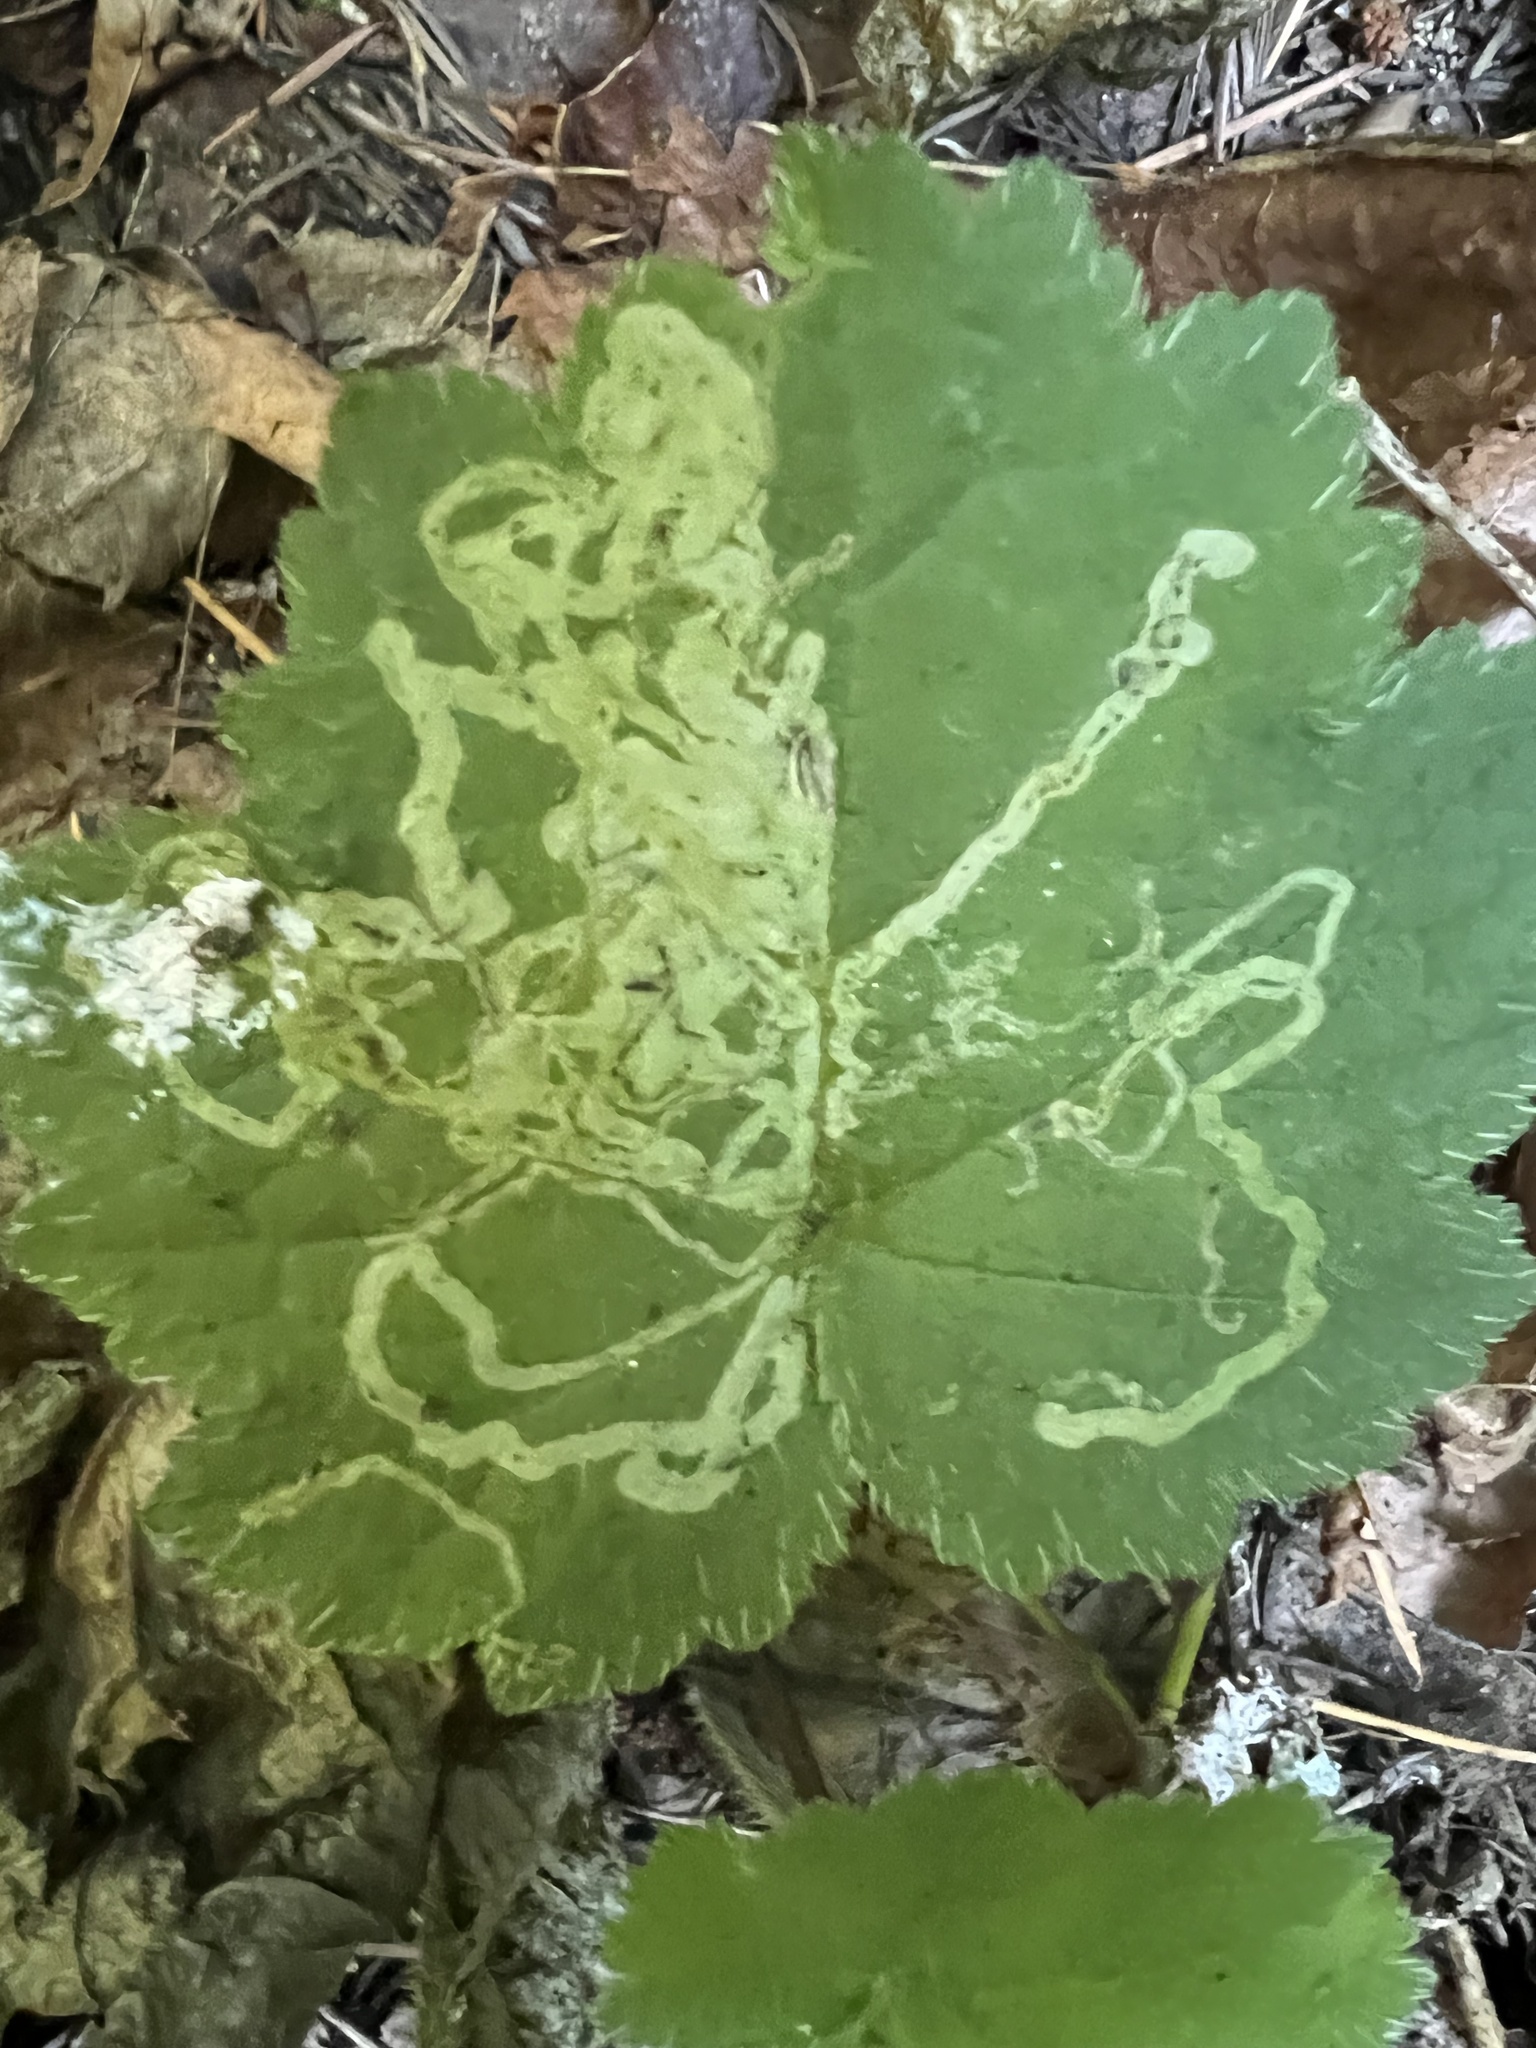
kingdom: Animalia
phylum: Arthropoda
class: Insecta
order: Diptera
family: Agromyzidae
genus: Phytomyza
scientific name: Phytomyza tiarellae
